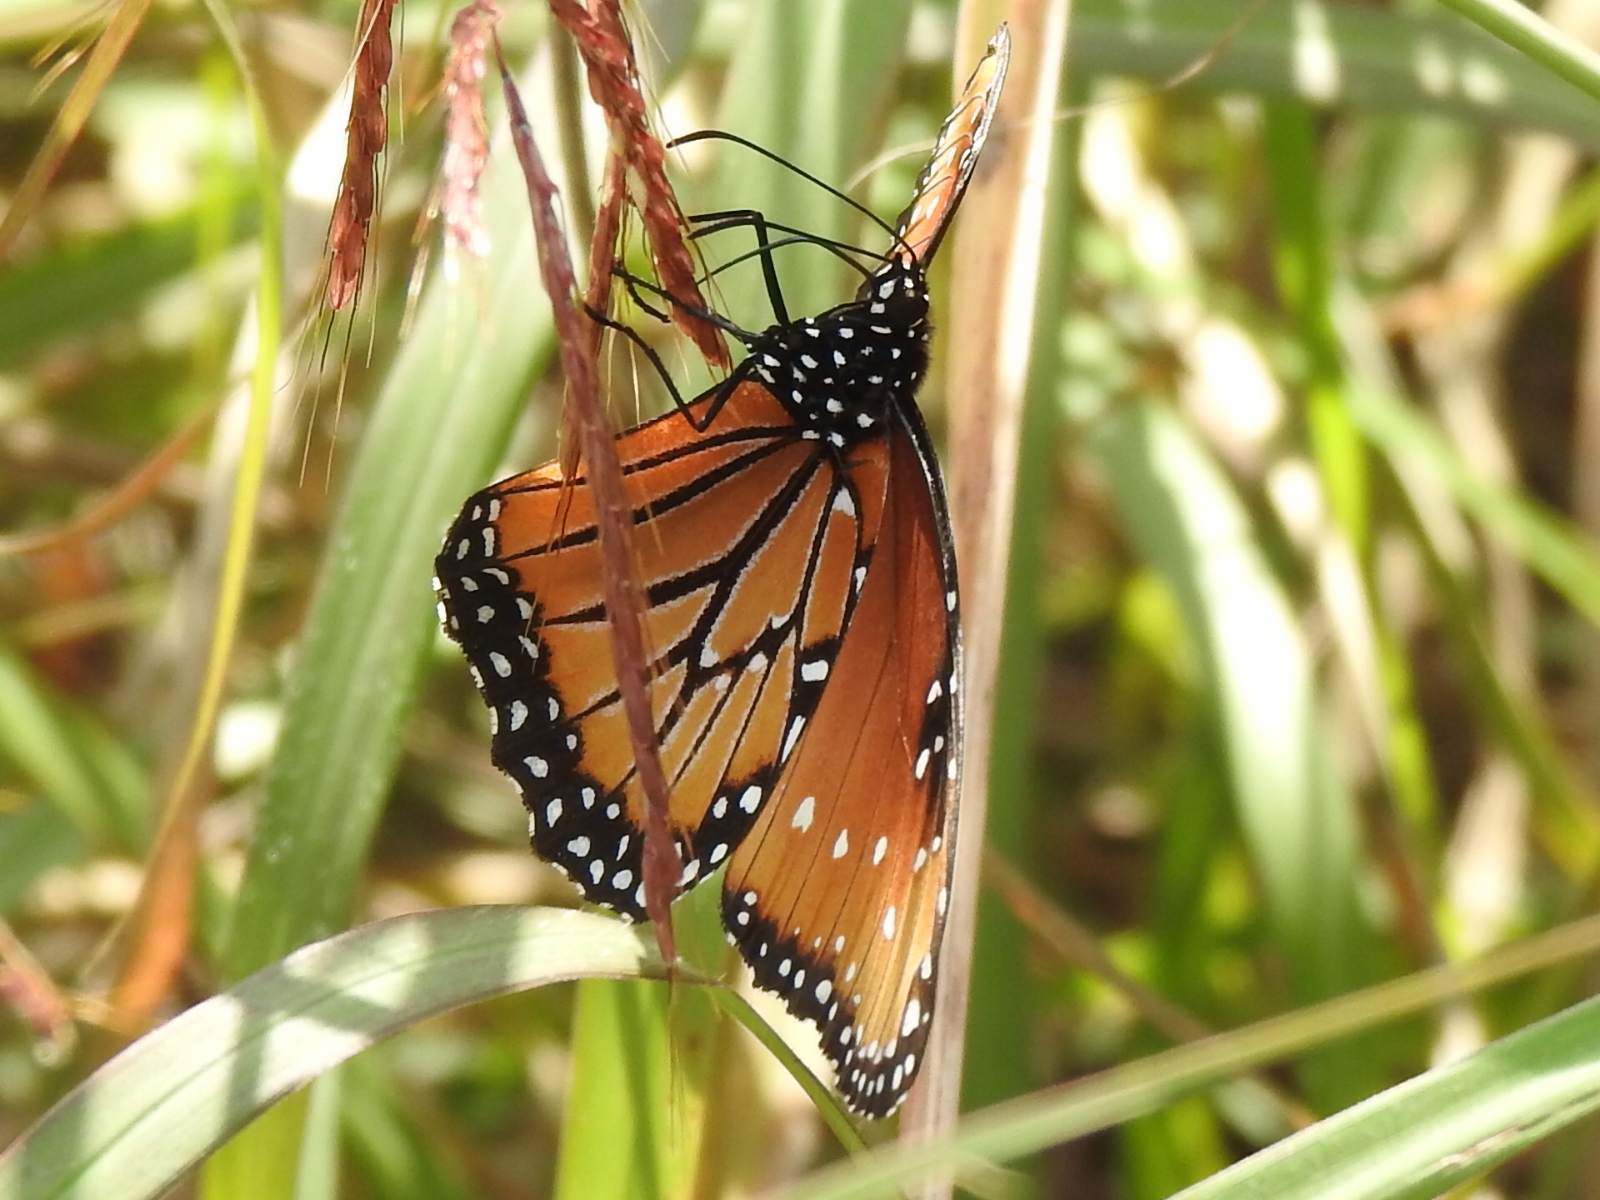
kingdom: Animalia
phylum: Arthropoda
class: Insecta
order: Lepidoptera
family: Nymphalidae
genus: Danaus
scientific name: Danaus gilippus
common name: Queen
